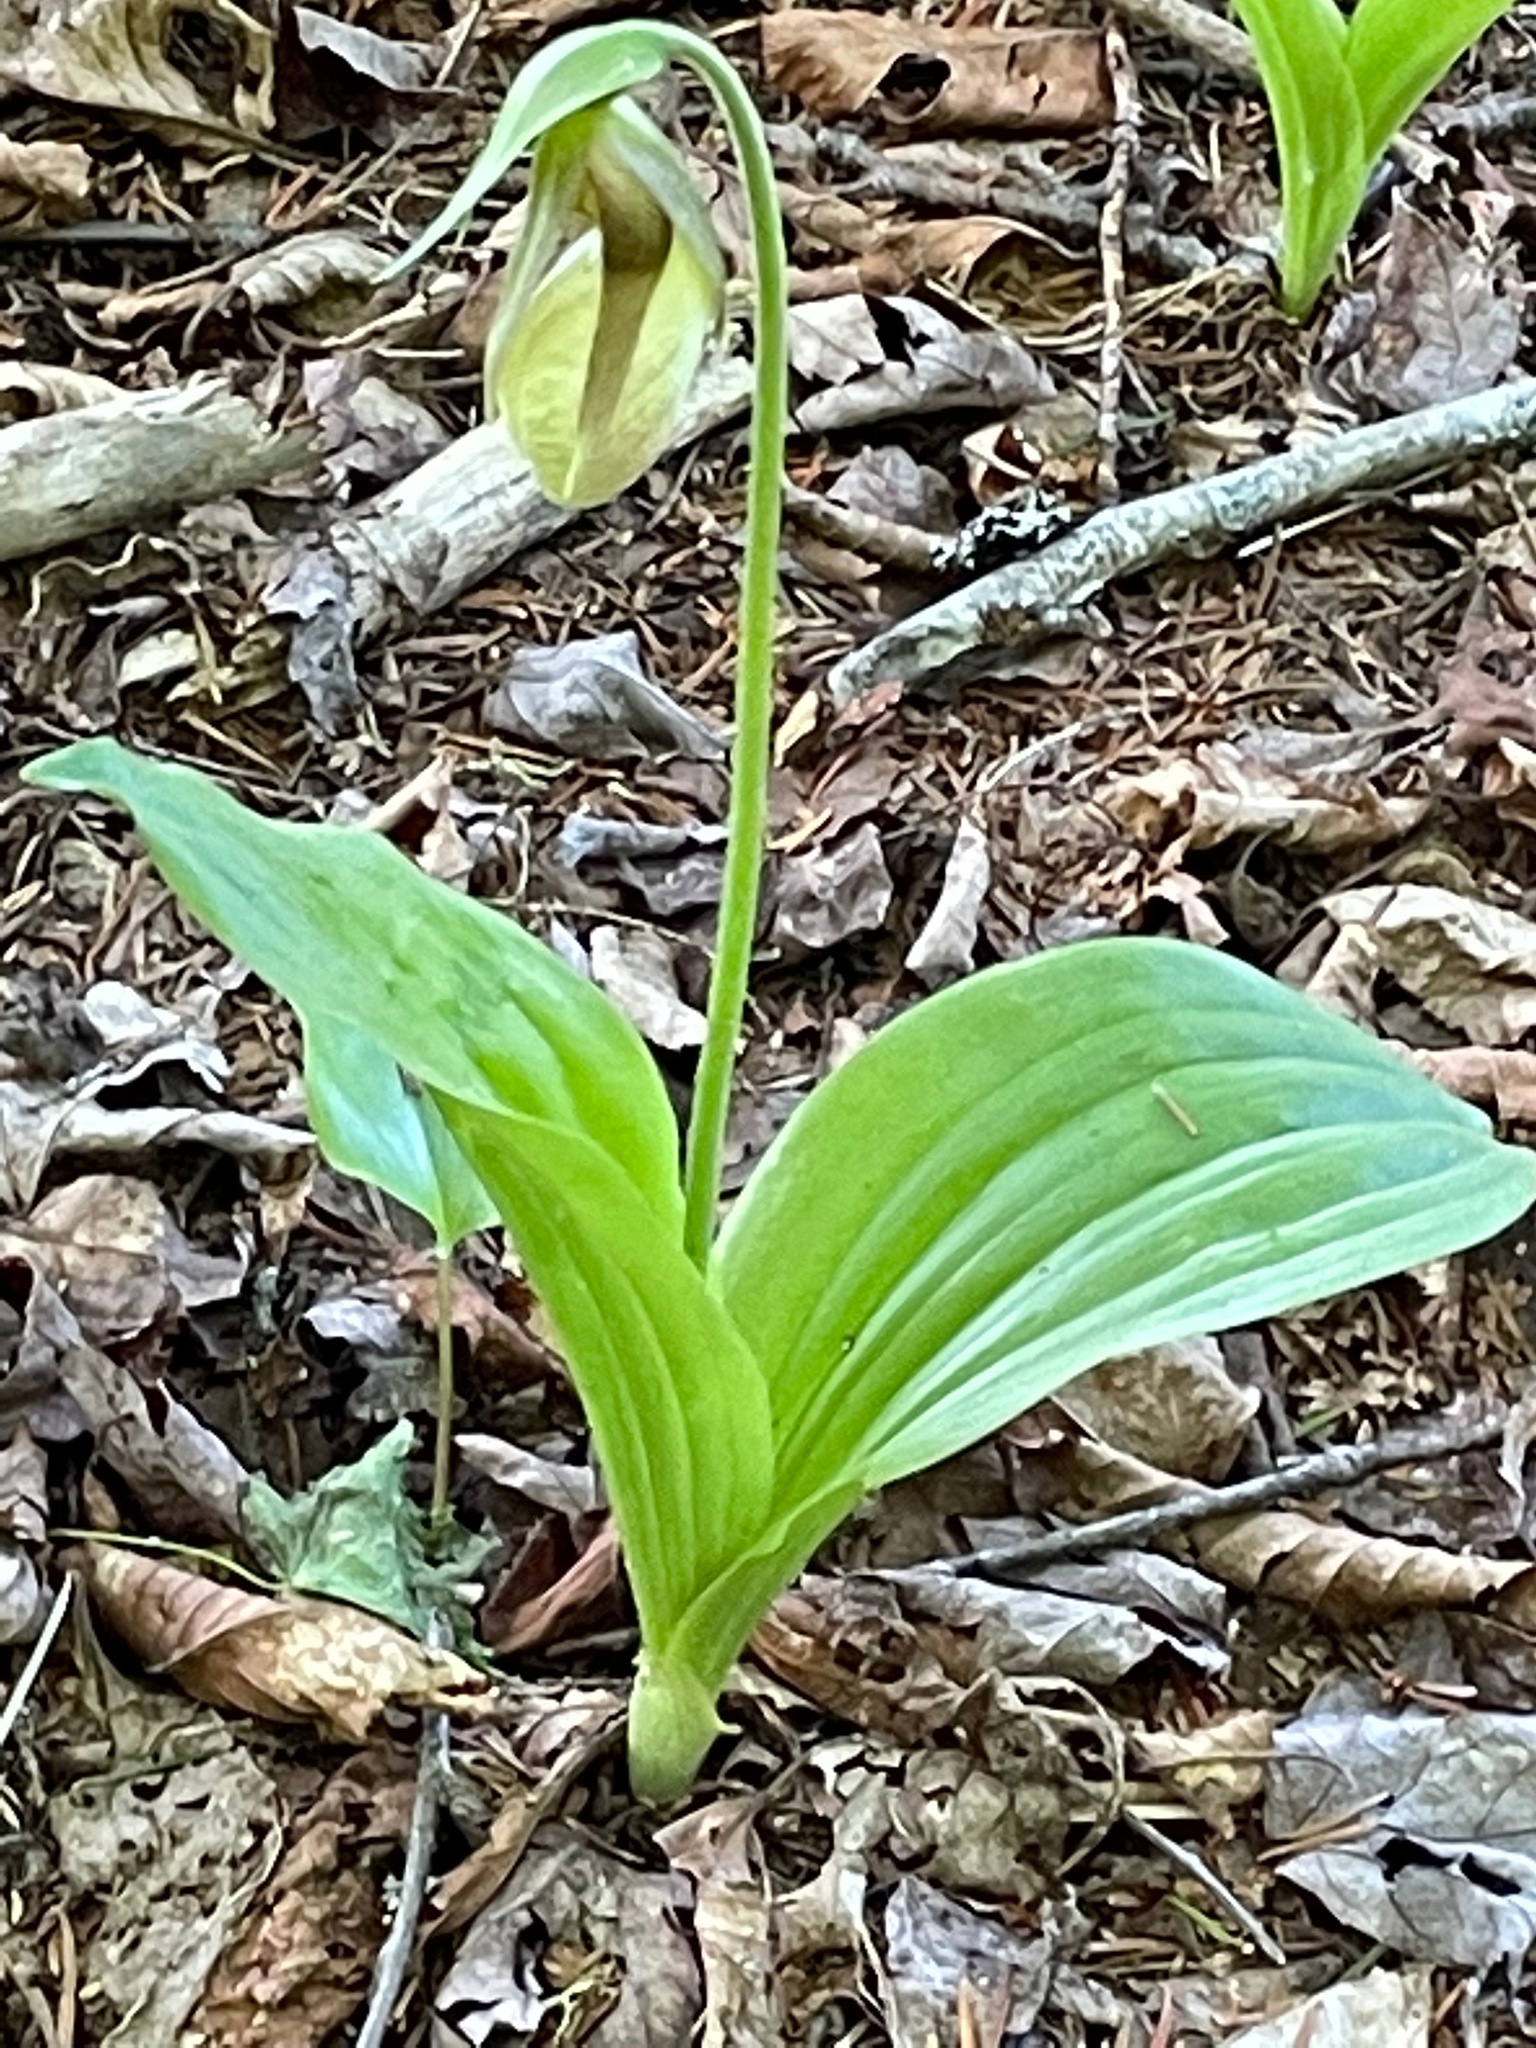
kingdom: Plantae
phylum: Tracheophyta
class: Liliopsida
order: Asparagales
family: Orchidaceae
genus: Cypripedium
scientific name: Cypripedium acaule
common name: Pink lady's-slipper
